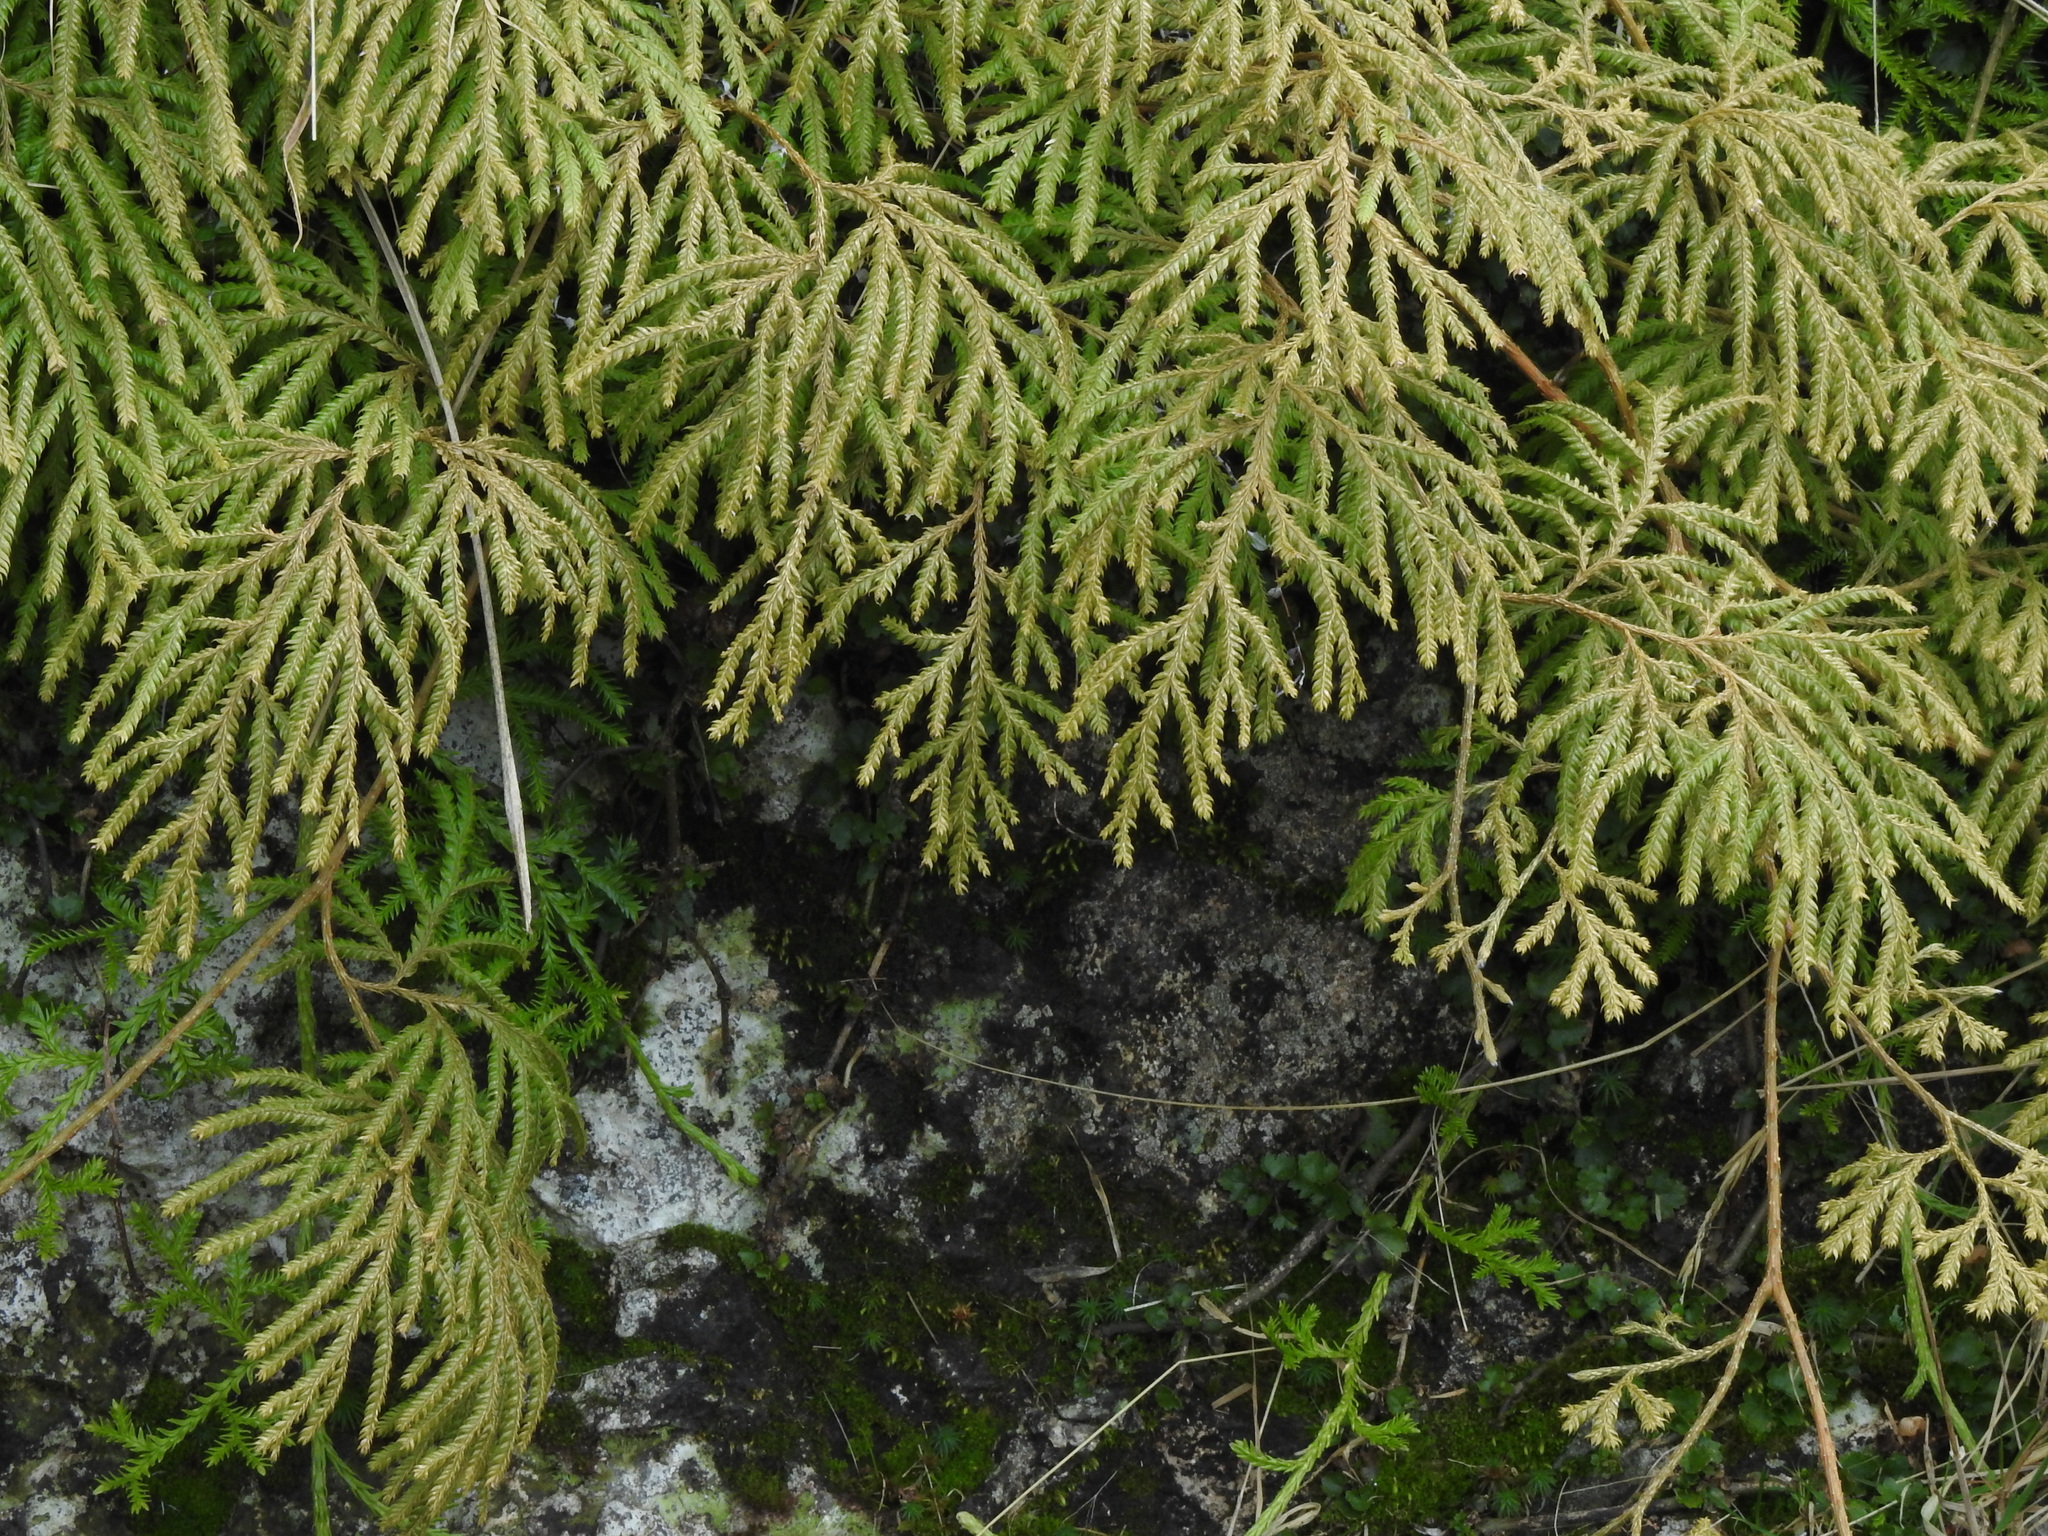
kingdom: Plantae
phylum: Tracheophyta
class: Lycopodiopsida
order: Lycopodiales
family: Lycopodiaceae
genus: Lycopodium
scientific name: Lycopodium volubile
